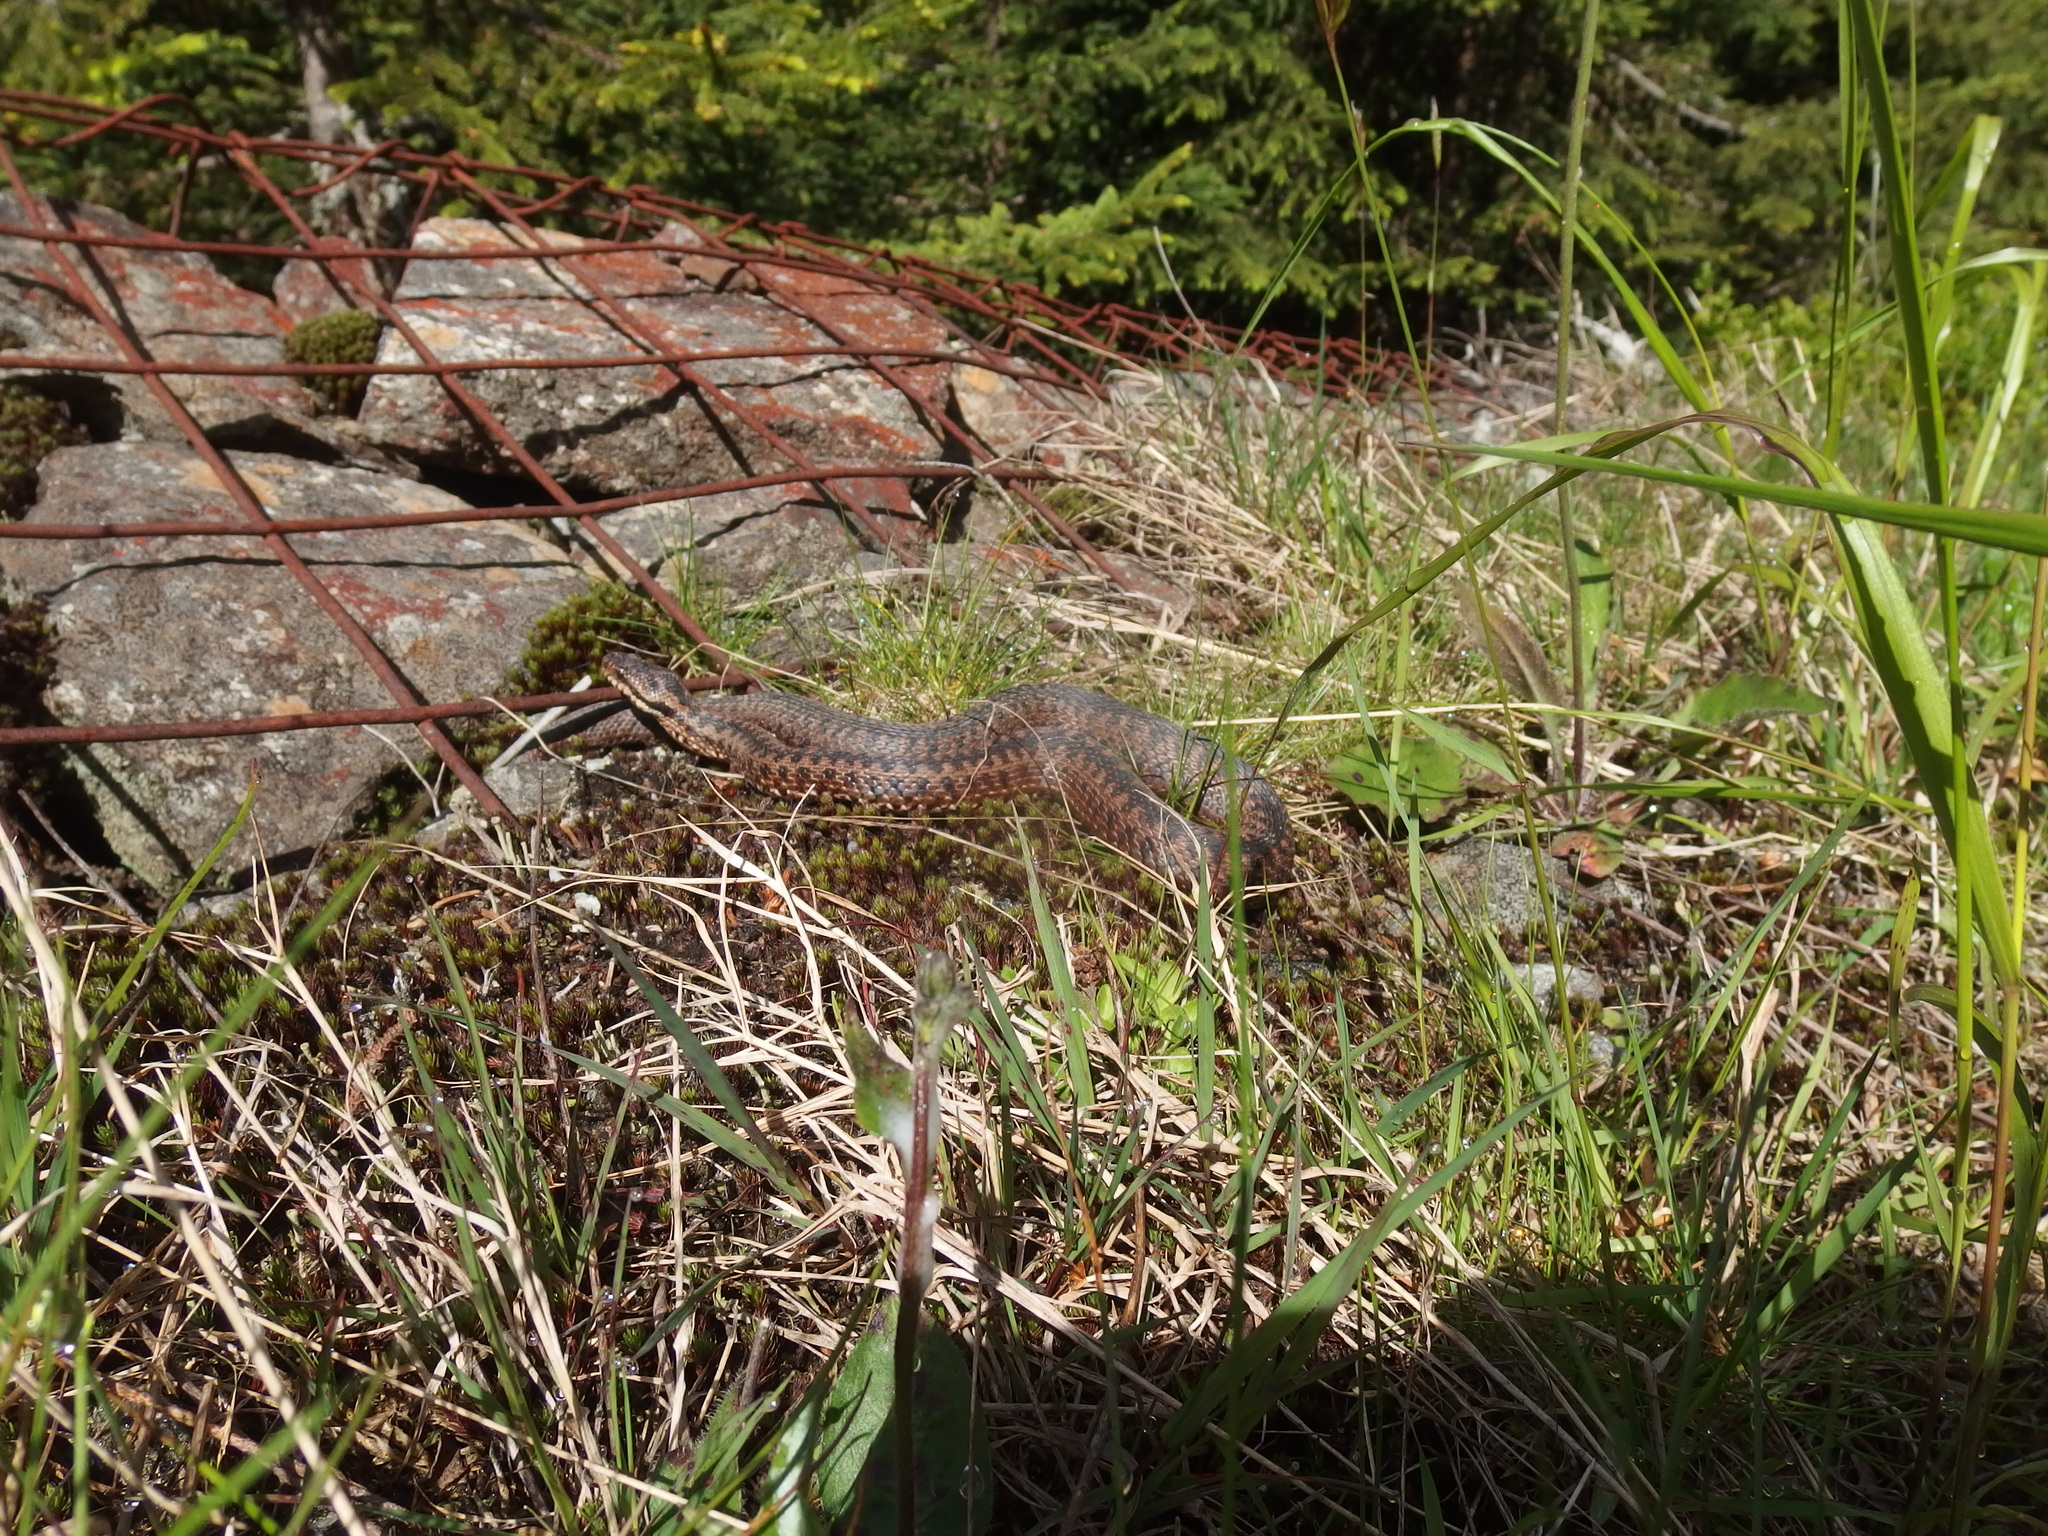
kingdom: Animalia
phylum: Chordata
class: Squamata
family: Viperidae
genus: Vipera
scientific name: Vipera berus
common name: Adder
